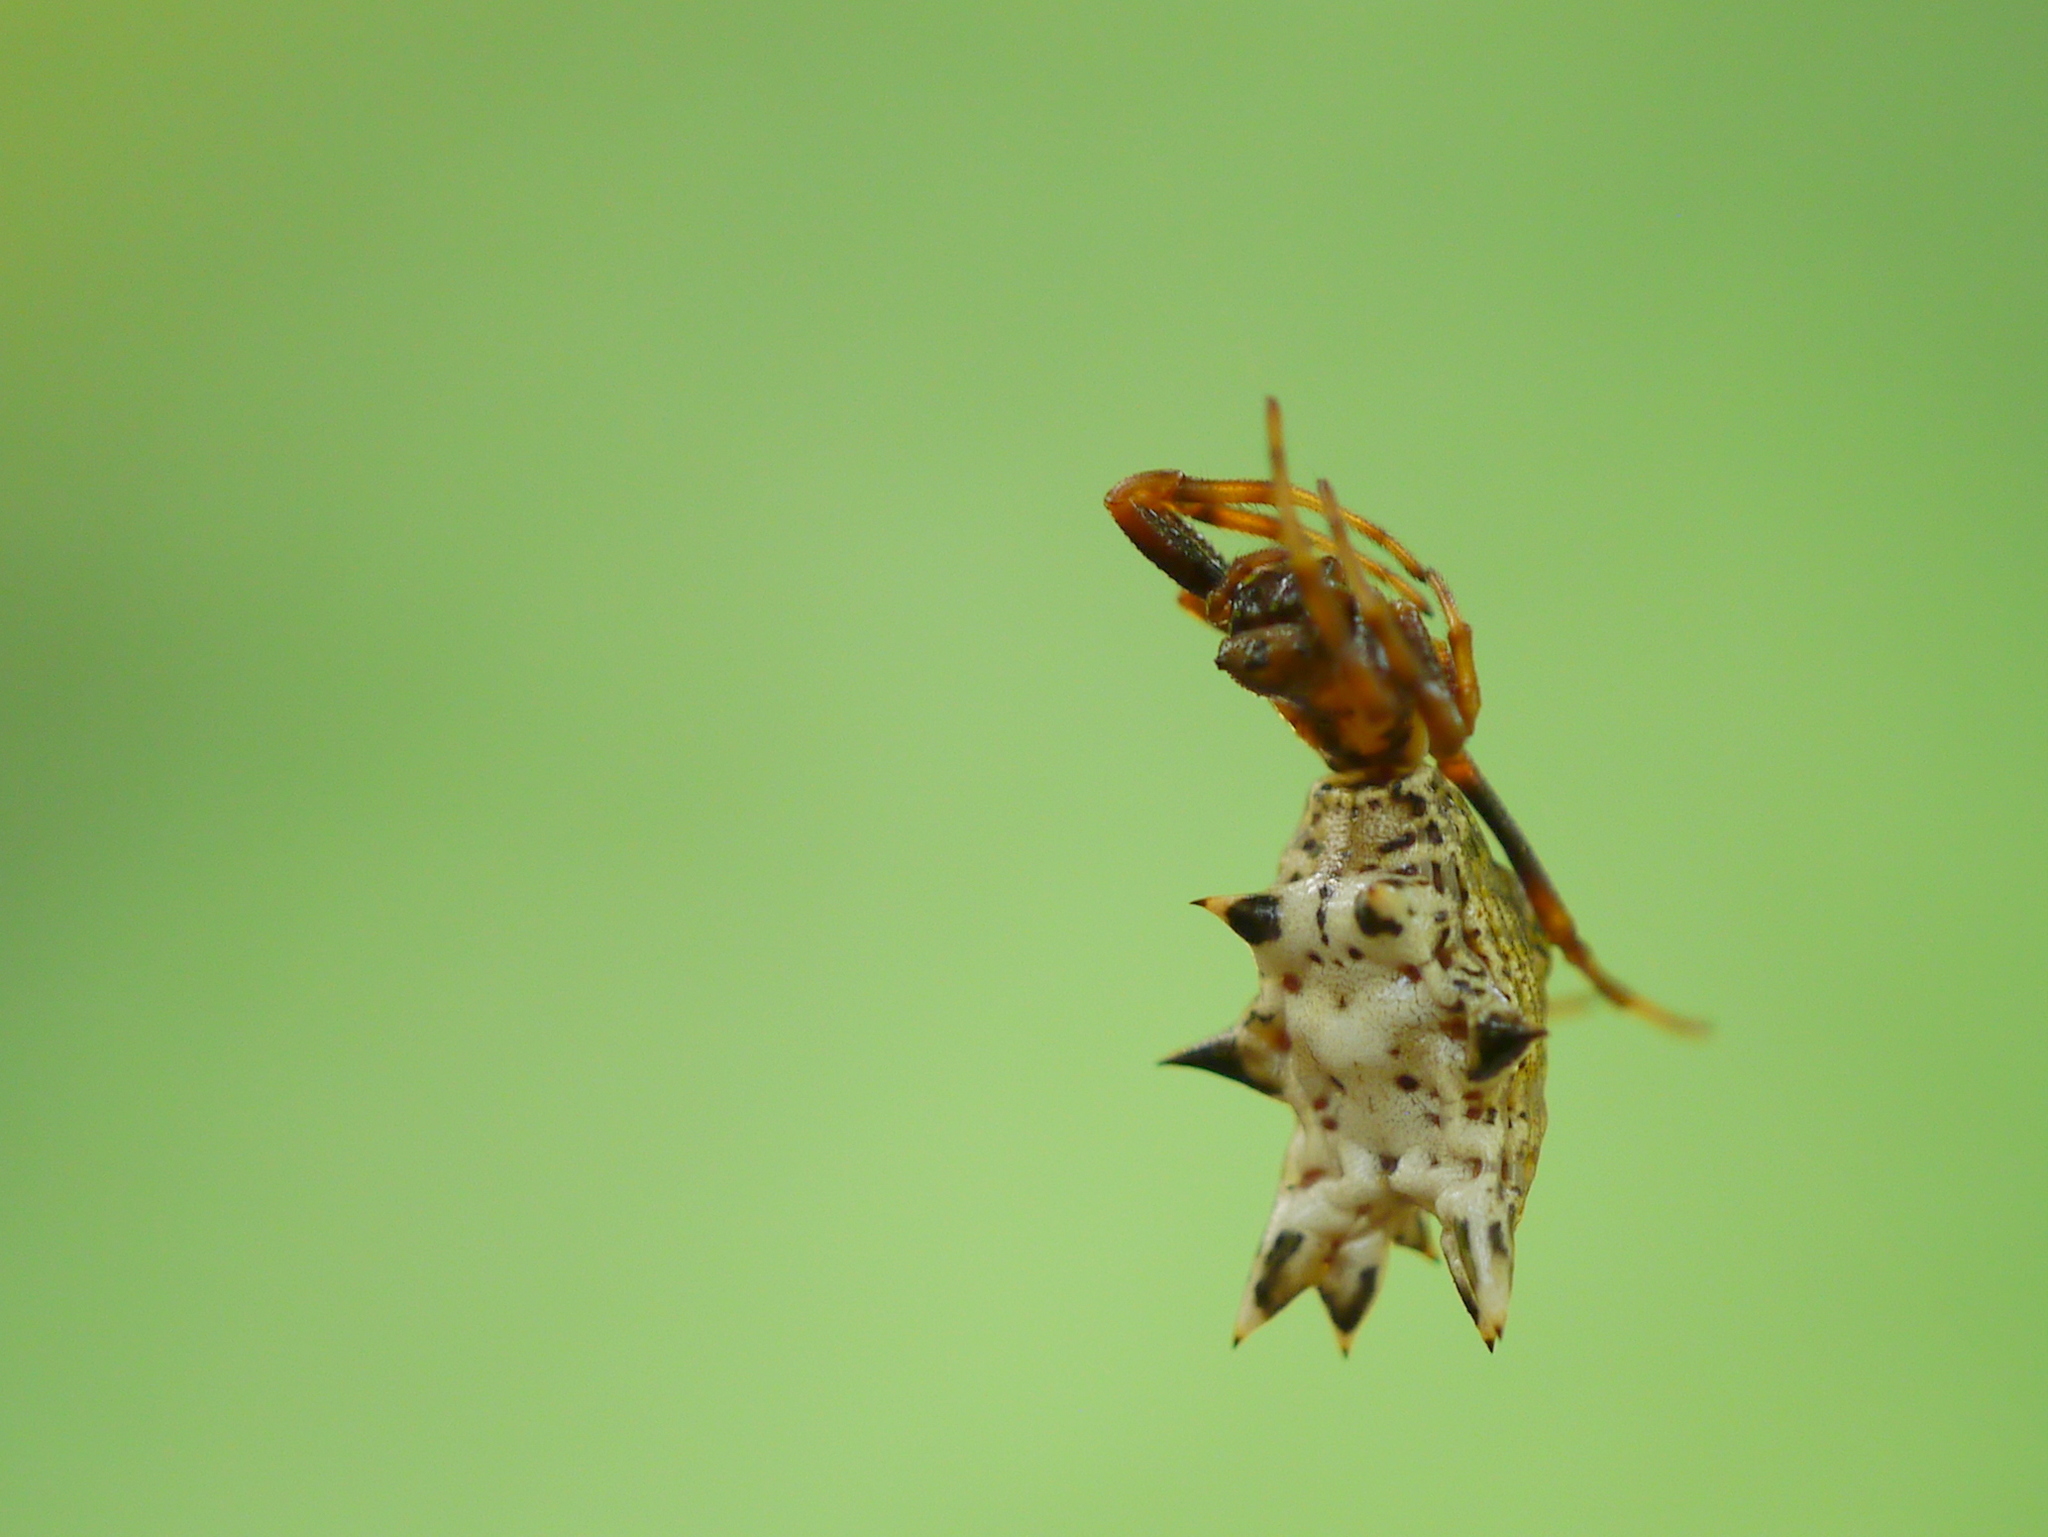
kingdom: Animalia
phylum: Arthropoda
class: Arachnida
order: Araneae
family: Araneidae
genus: Micrathena
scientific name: Micrathena gracilis
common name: Orb weavers
